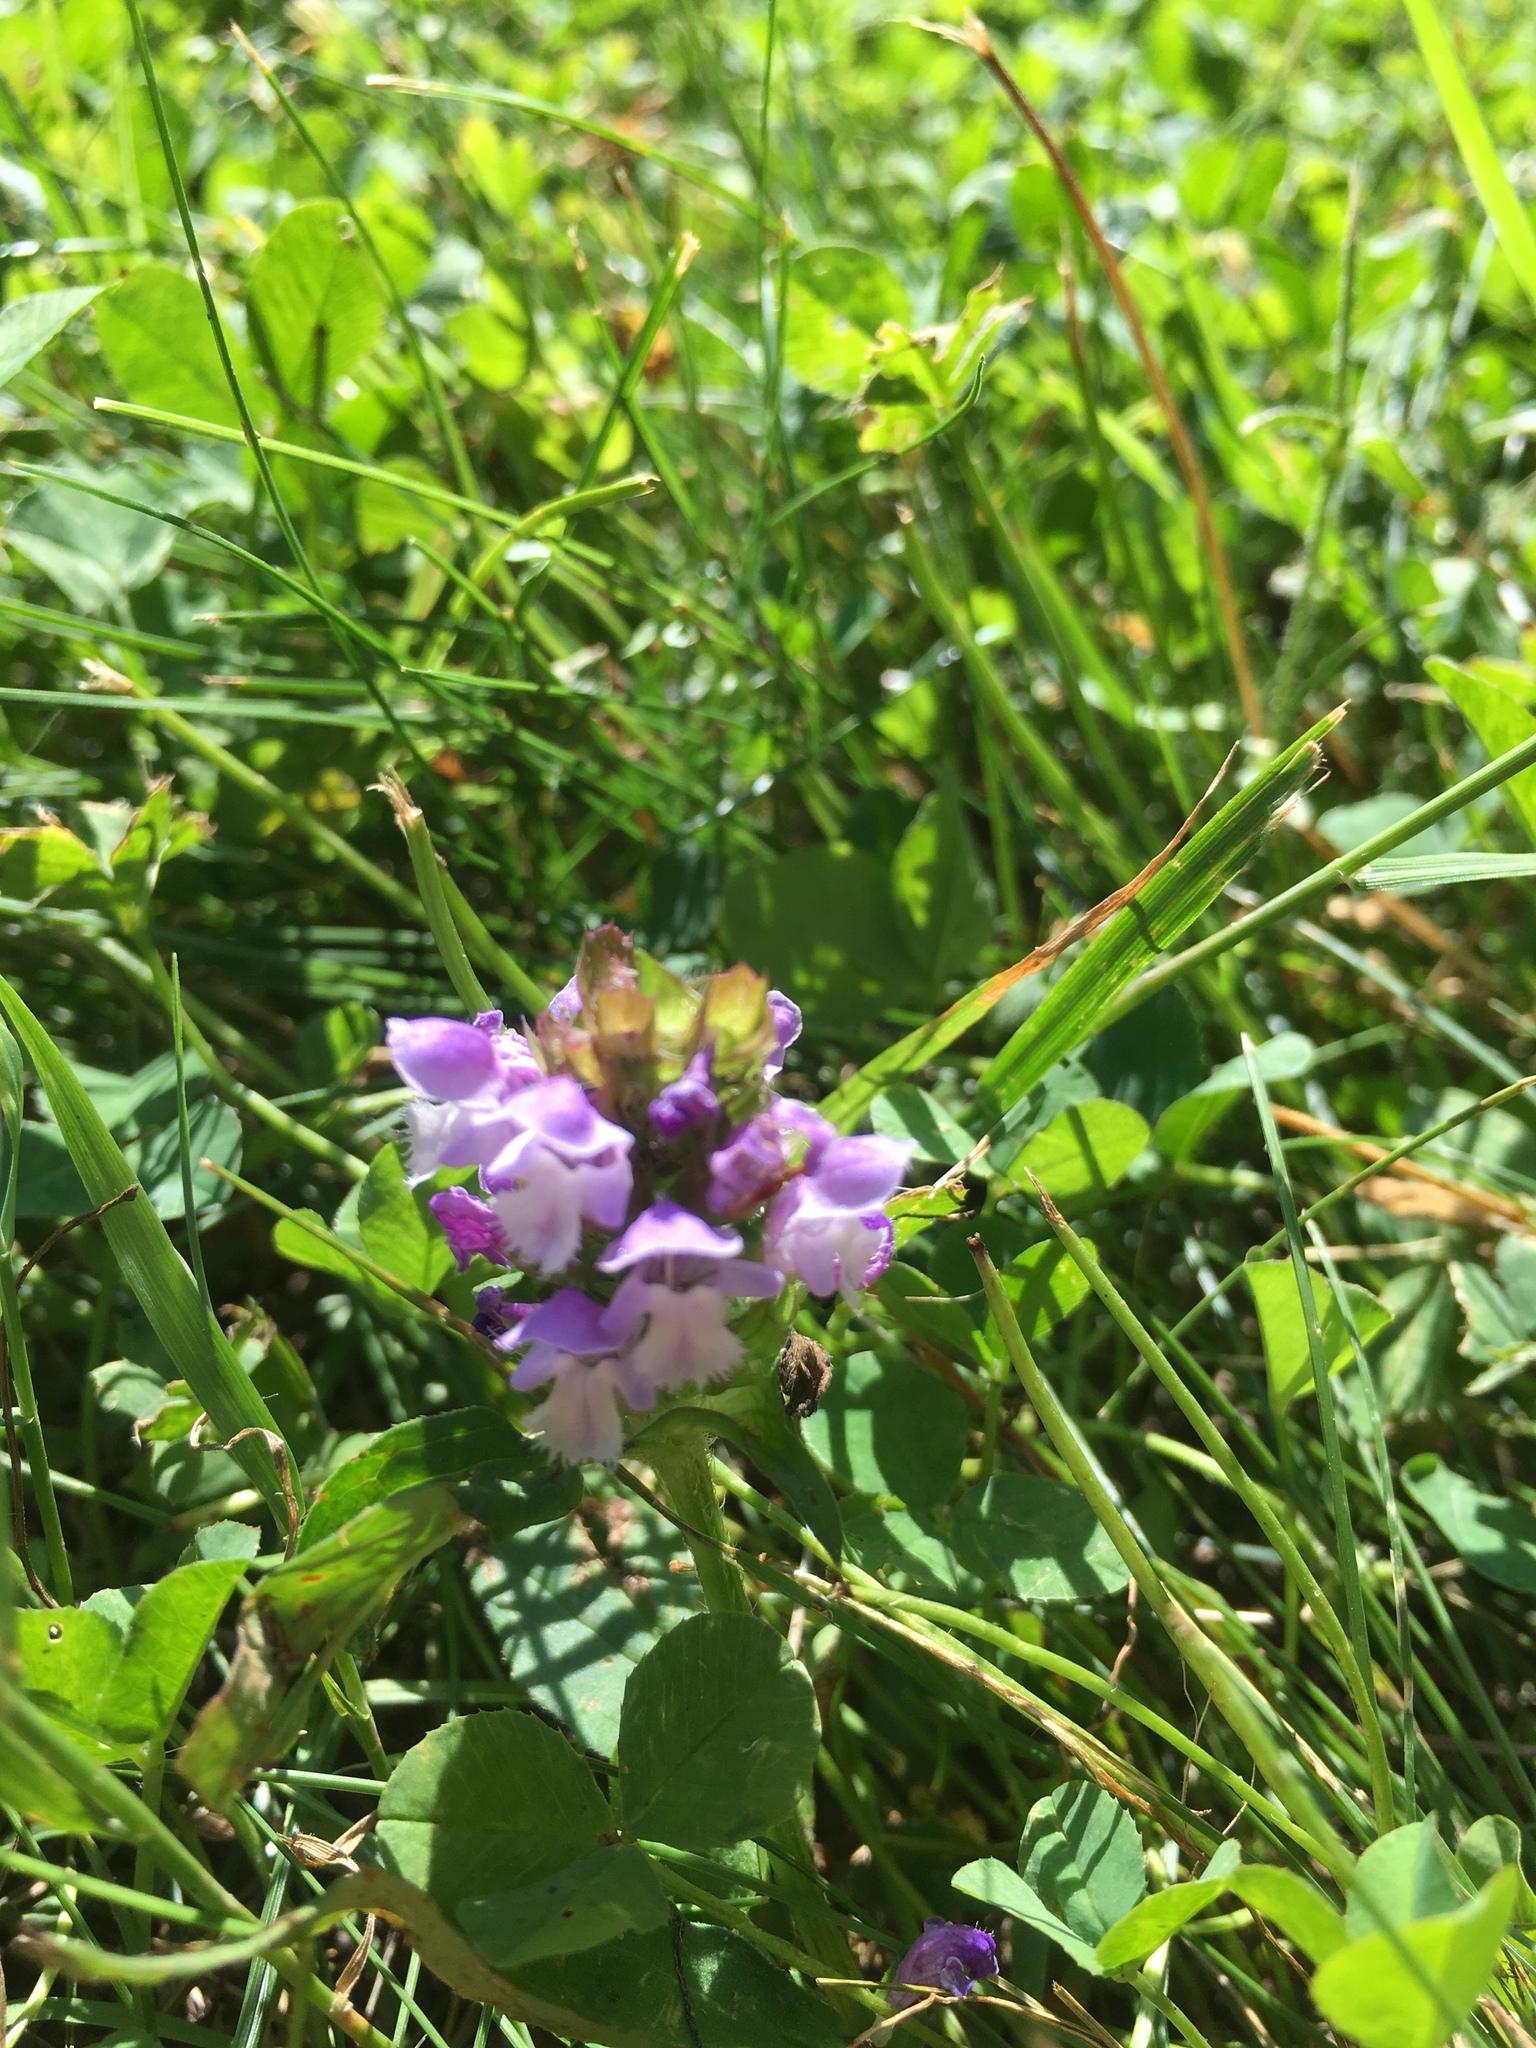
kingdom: Plantae
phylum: Tracheophyta
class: Magnoliopsida
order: Lamiales
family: Lamiaceae
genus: Prunella
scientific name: Prunella vulgaris
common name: Heal-all
